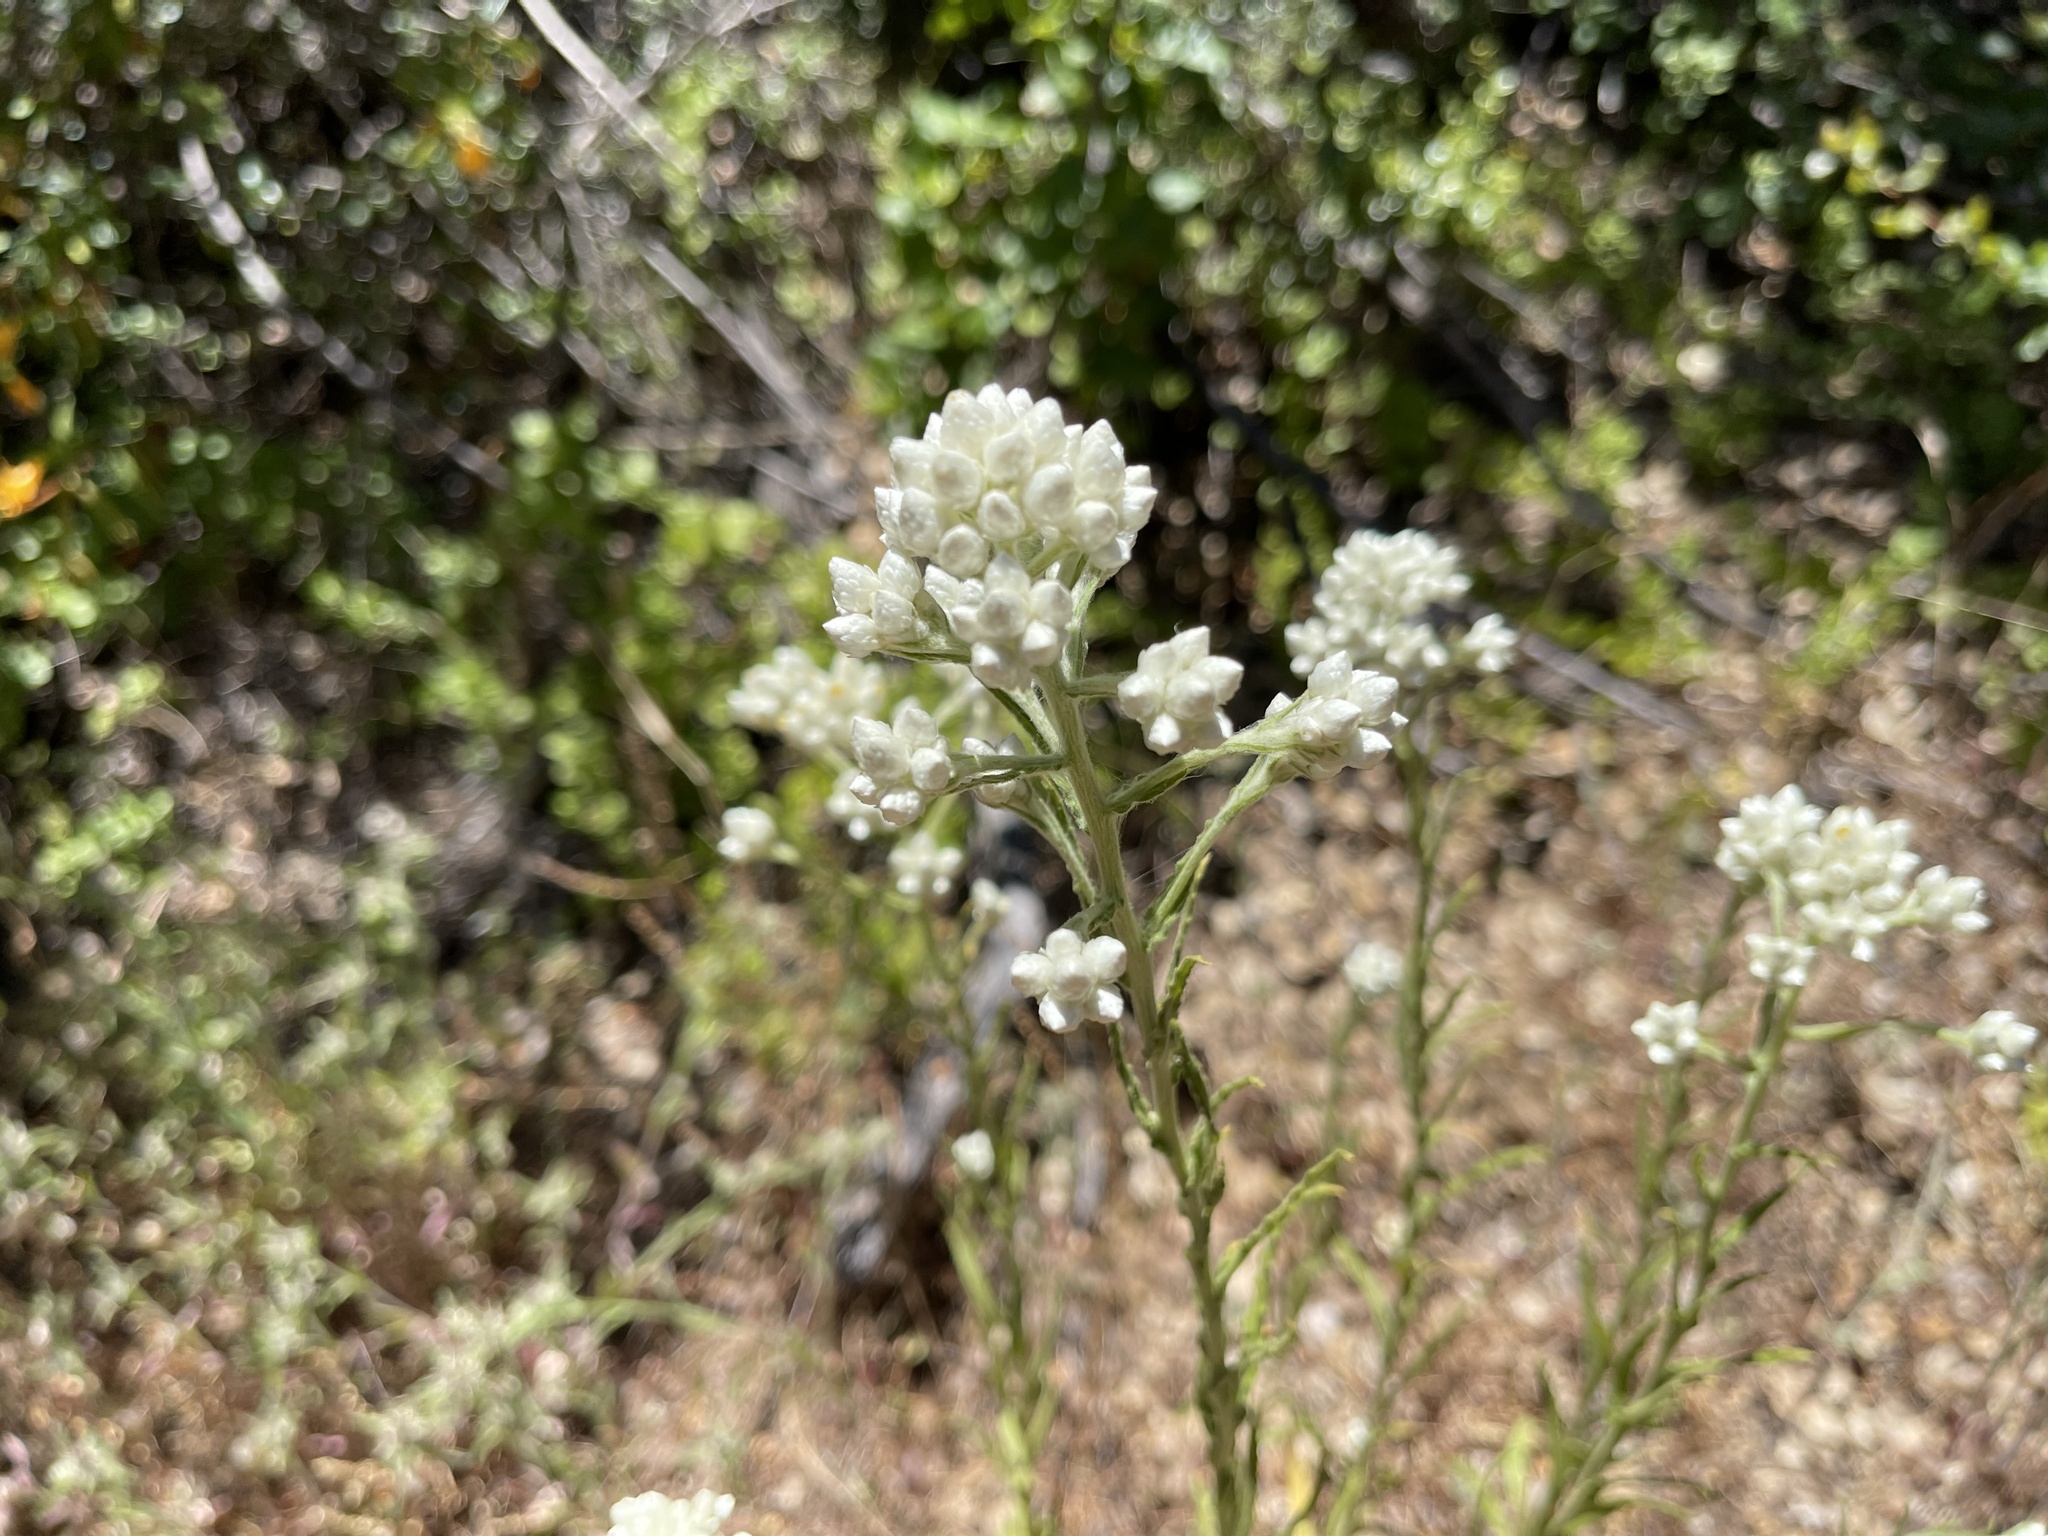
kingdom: Plantae
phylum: Tracheophyta
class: Magnoliopsida
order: Asterales
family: Asteraceae
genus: Pseudognaphalium
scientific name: Pseudognaphalium californicum
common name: California rabbit-tobacco
